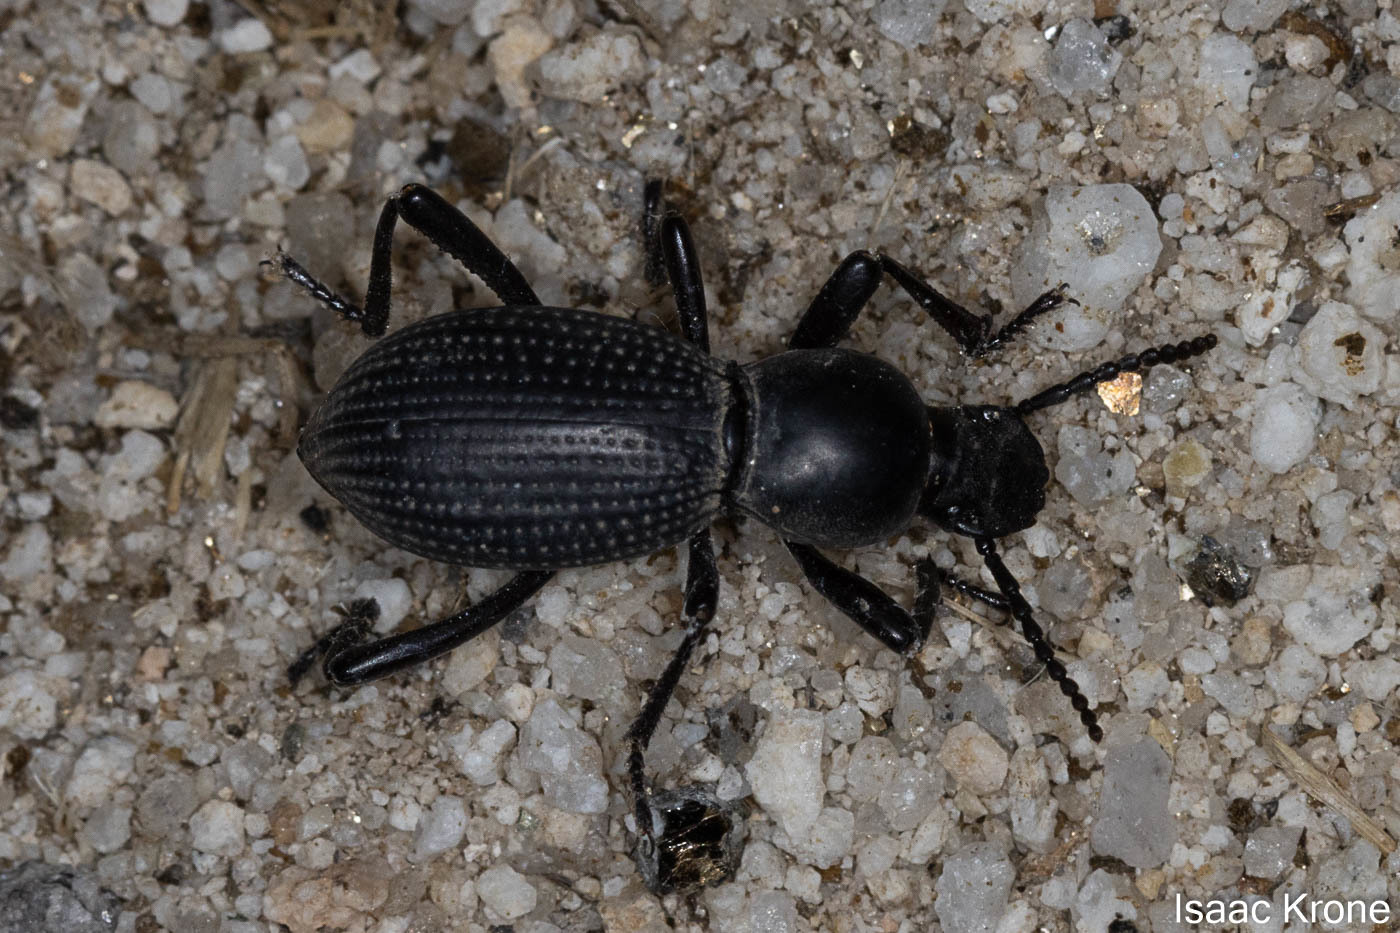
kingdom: Animalia
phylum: Arthropoda
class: Insecta
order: Coleoptera
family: Tenebrionidae
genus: Cerenopus
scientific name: Cerenopus concolor
